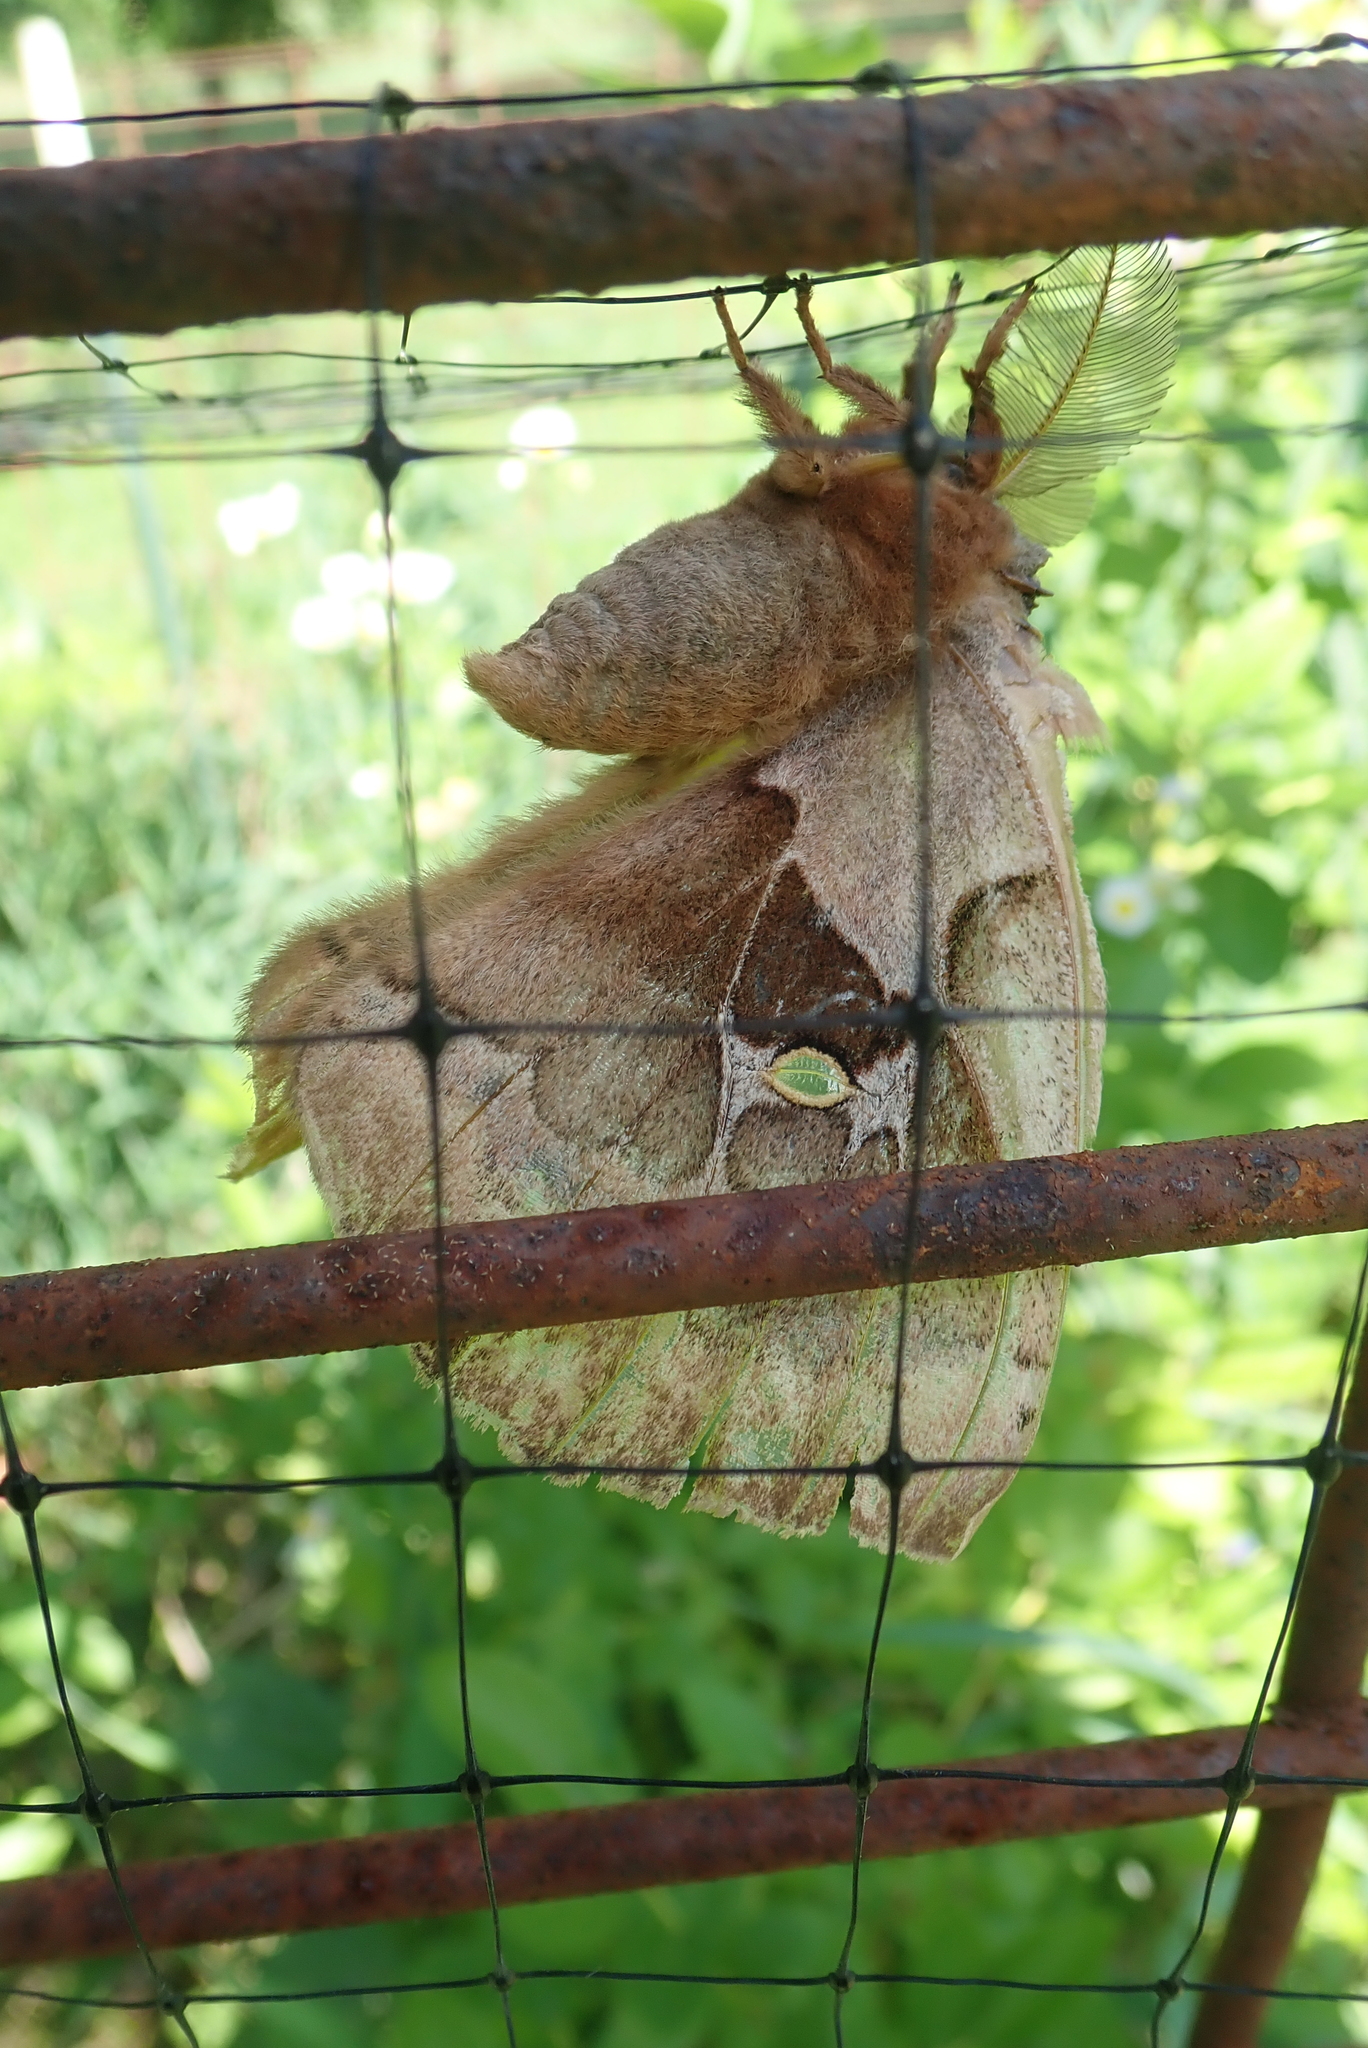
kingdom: Animalia
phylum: Arthropoda
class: Insecta
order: Lepidoptera
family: Saturniidae
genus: Antheraea
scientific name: Antheraea polyphemus
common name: Polyphemus moth
